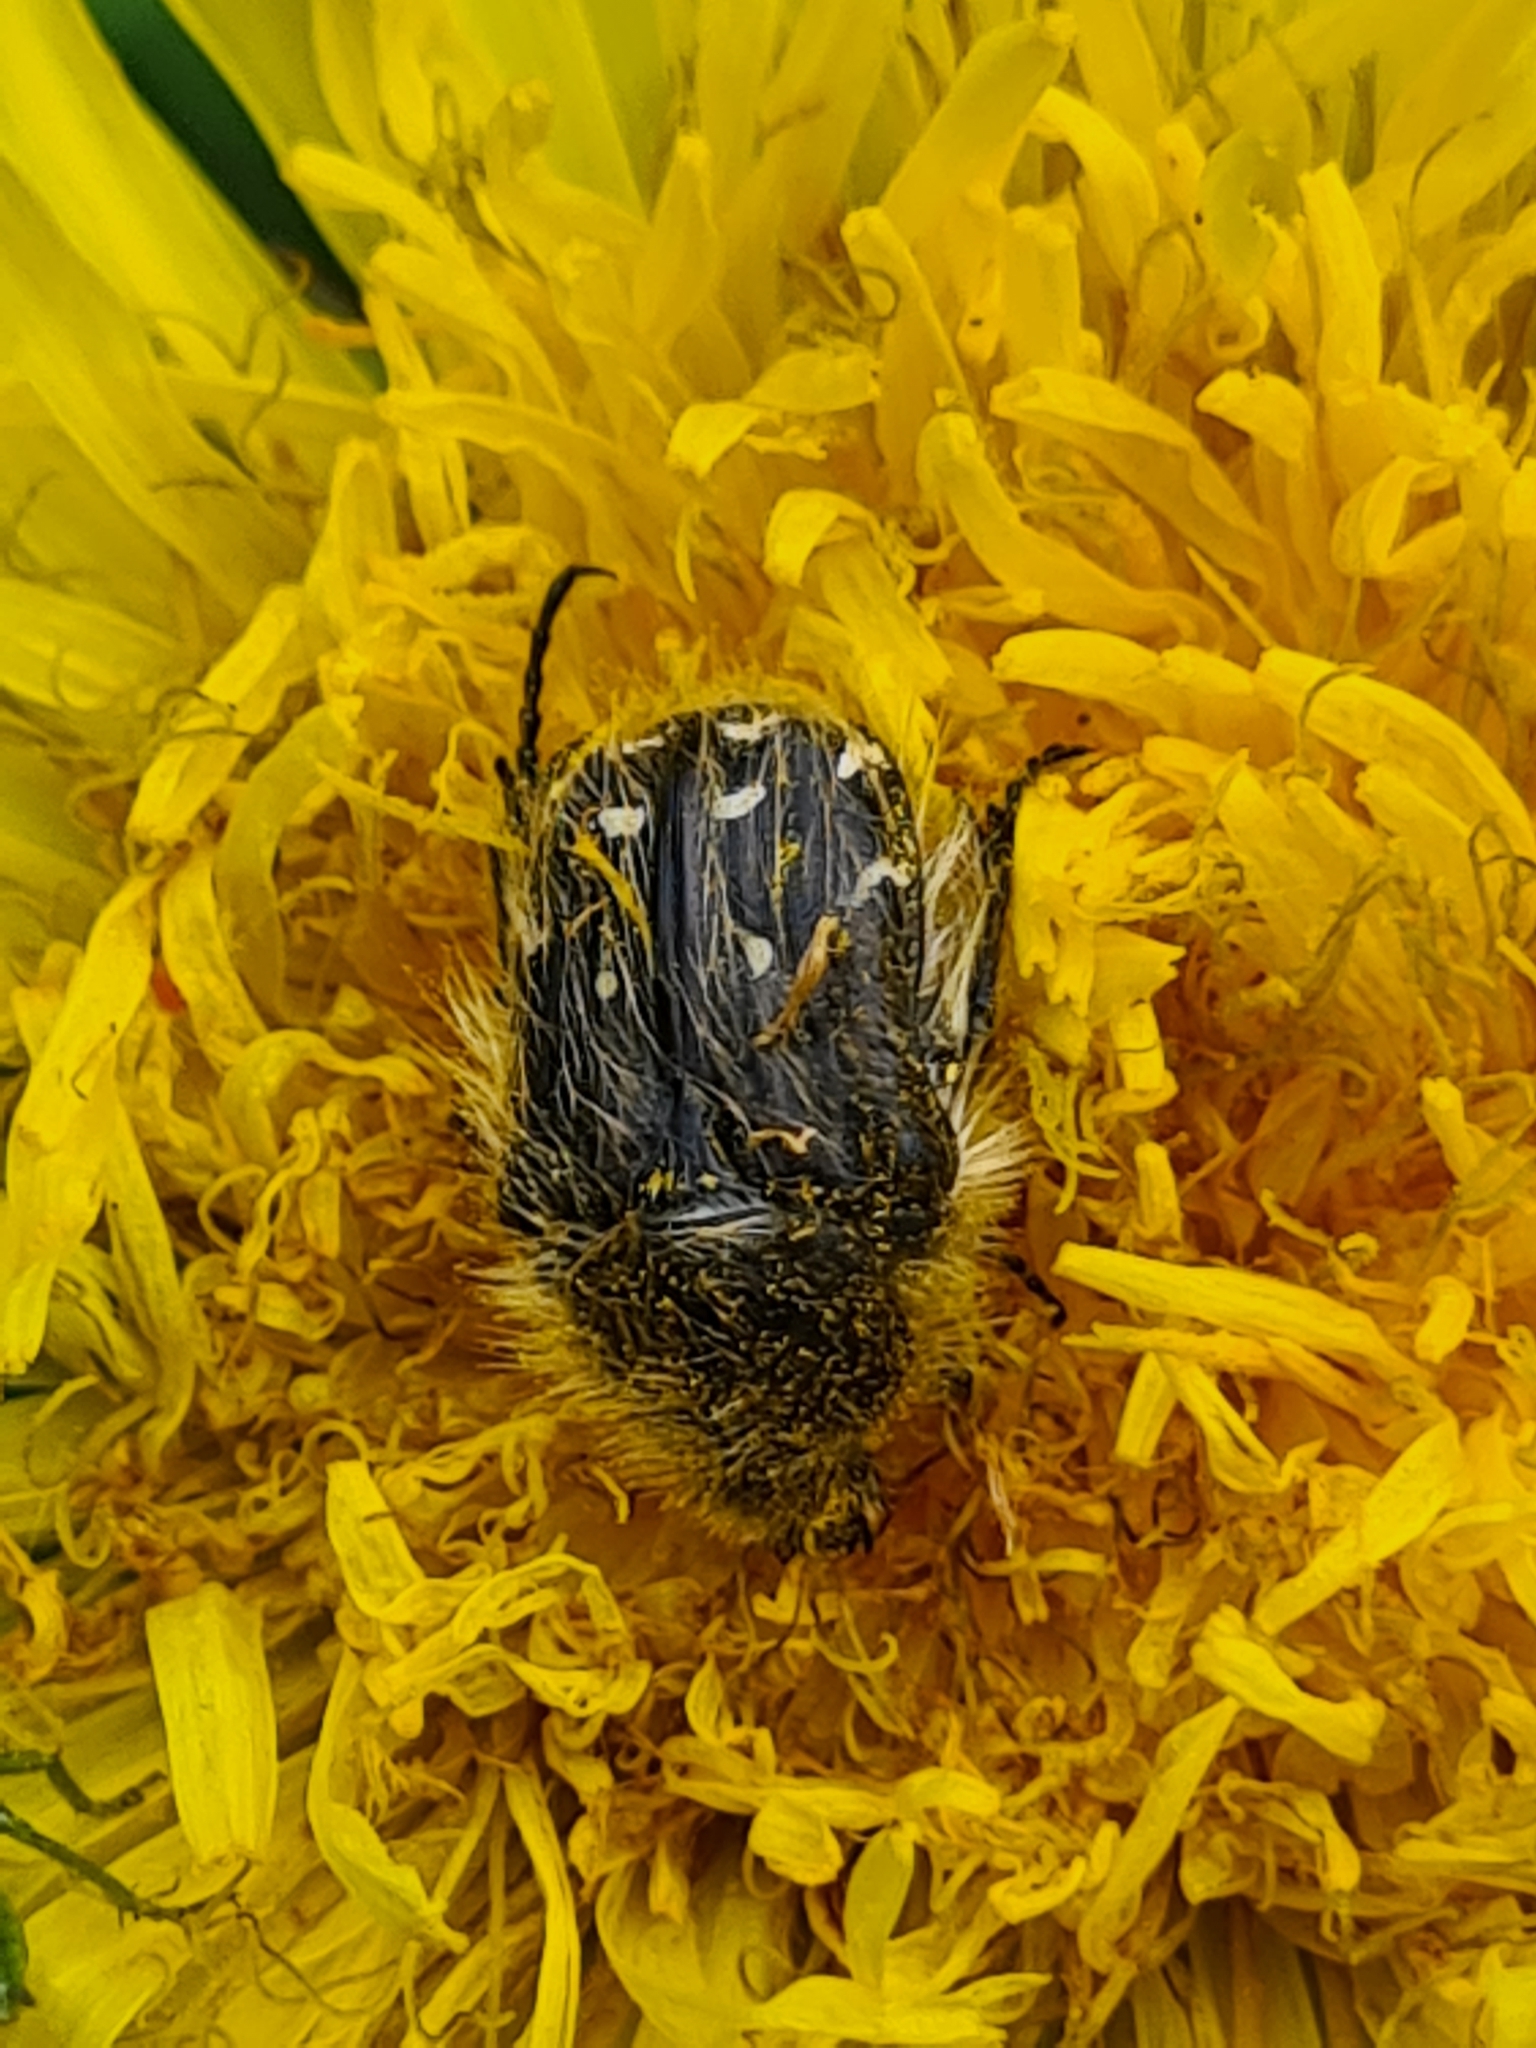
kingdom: Animalia
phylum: Arthropoda
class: Insecta
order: Coleoptera
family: Scarabaeidae
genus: Tropinota
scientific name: Tropinota hirta
